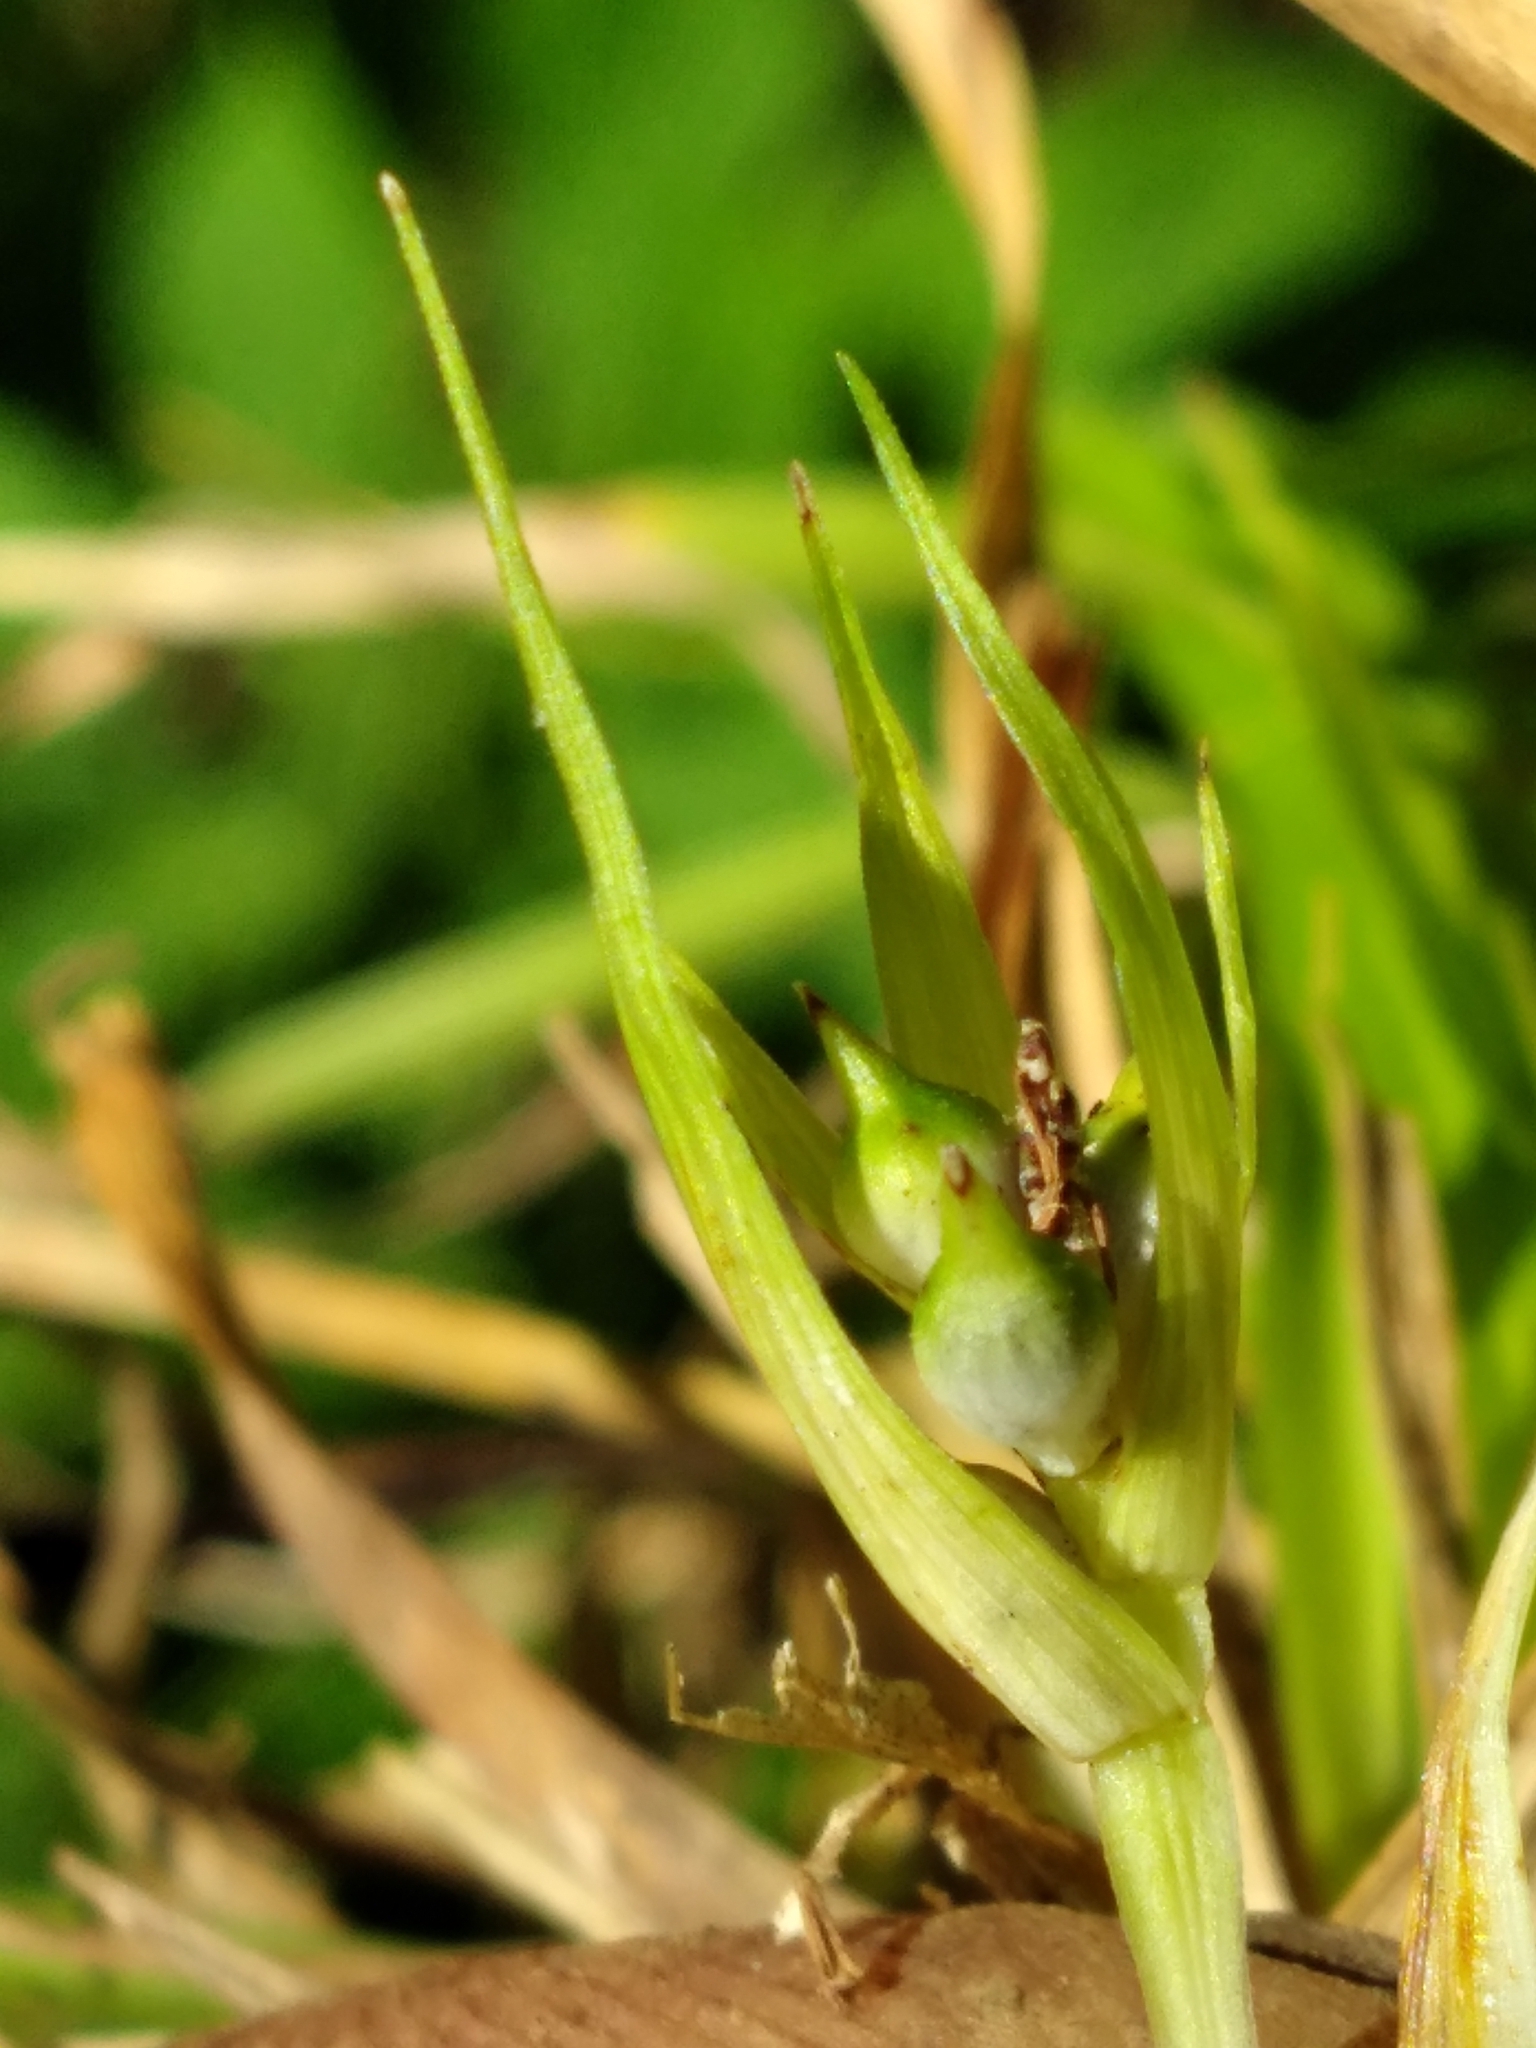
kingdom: Plantae
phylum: Tracheophyta
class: Liliopsida
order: Poales
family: Cyperaceae
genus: Carex
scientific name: Carex juniperorum
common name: Juniper-sedge
